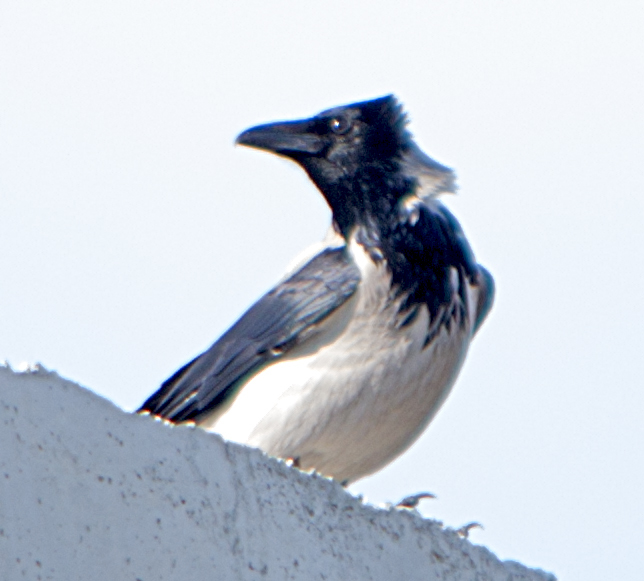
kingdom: Animalia
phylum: Chordata
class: Aves
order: Passeriformes
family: Corvidae
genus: Corvus
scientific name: Corvus cornix
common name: Hooded crow
